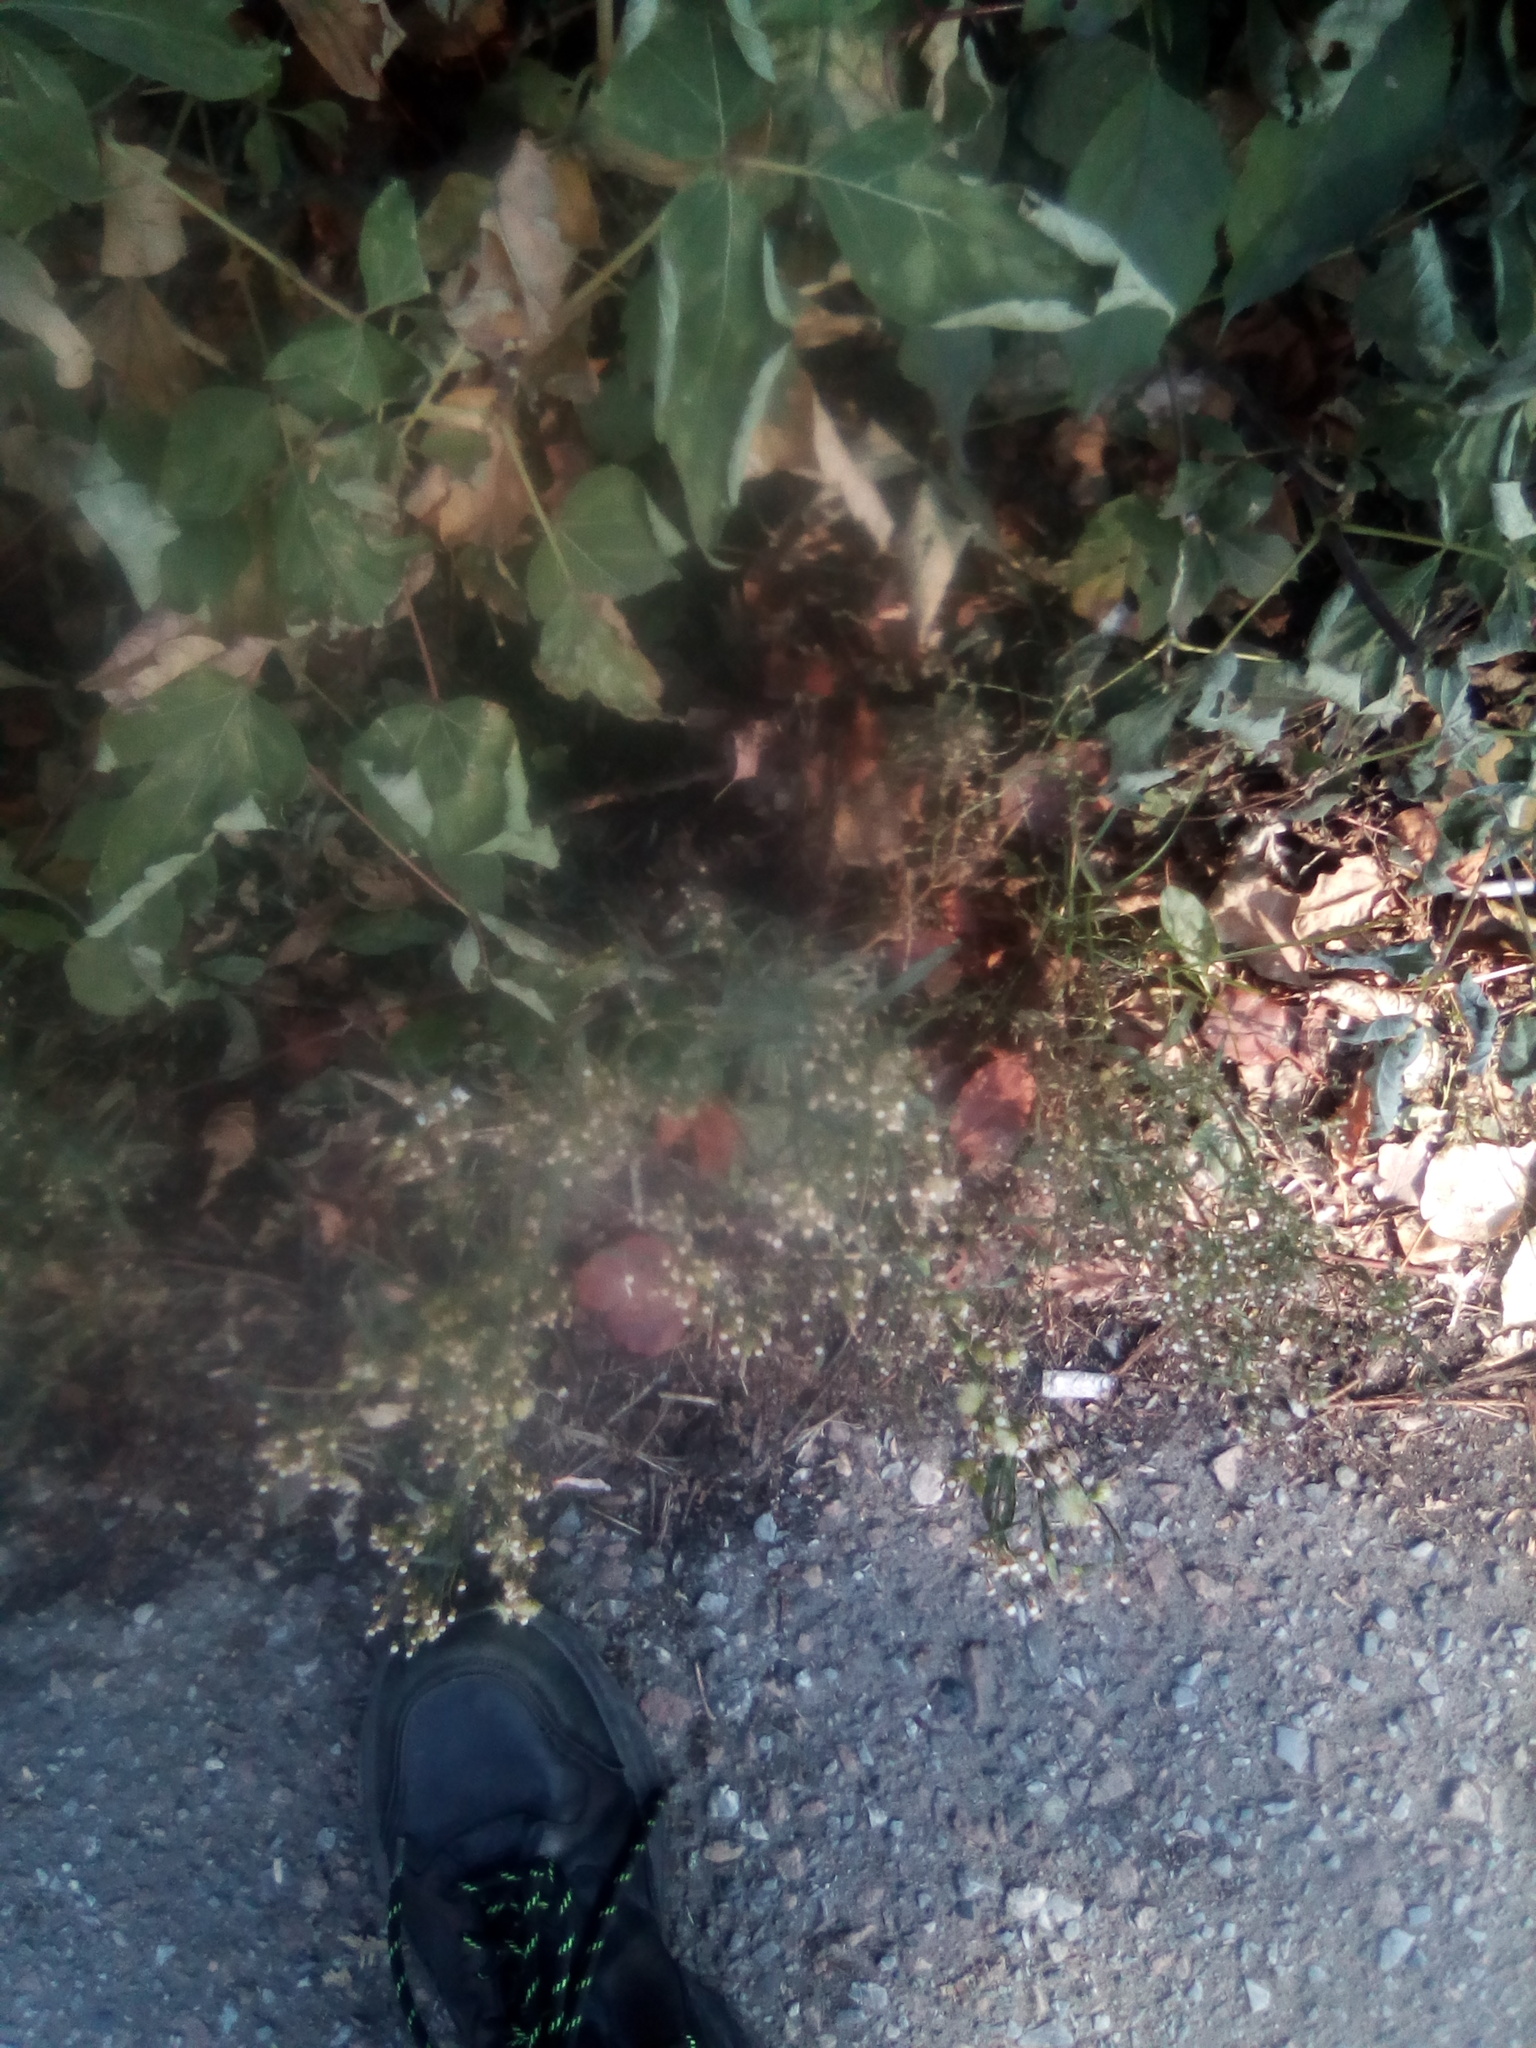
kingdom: Plantae
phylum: Tracheophyta
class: Magnoliopsida
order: Asterales
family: Asteraceae
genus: Erigeron
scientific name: Erigeron canadensis
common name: Canadian fleabane
